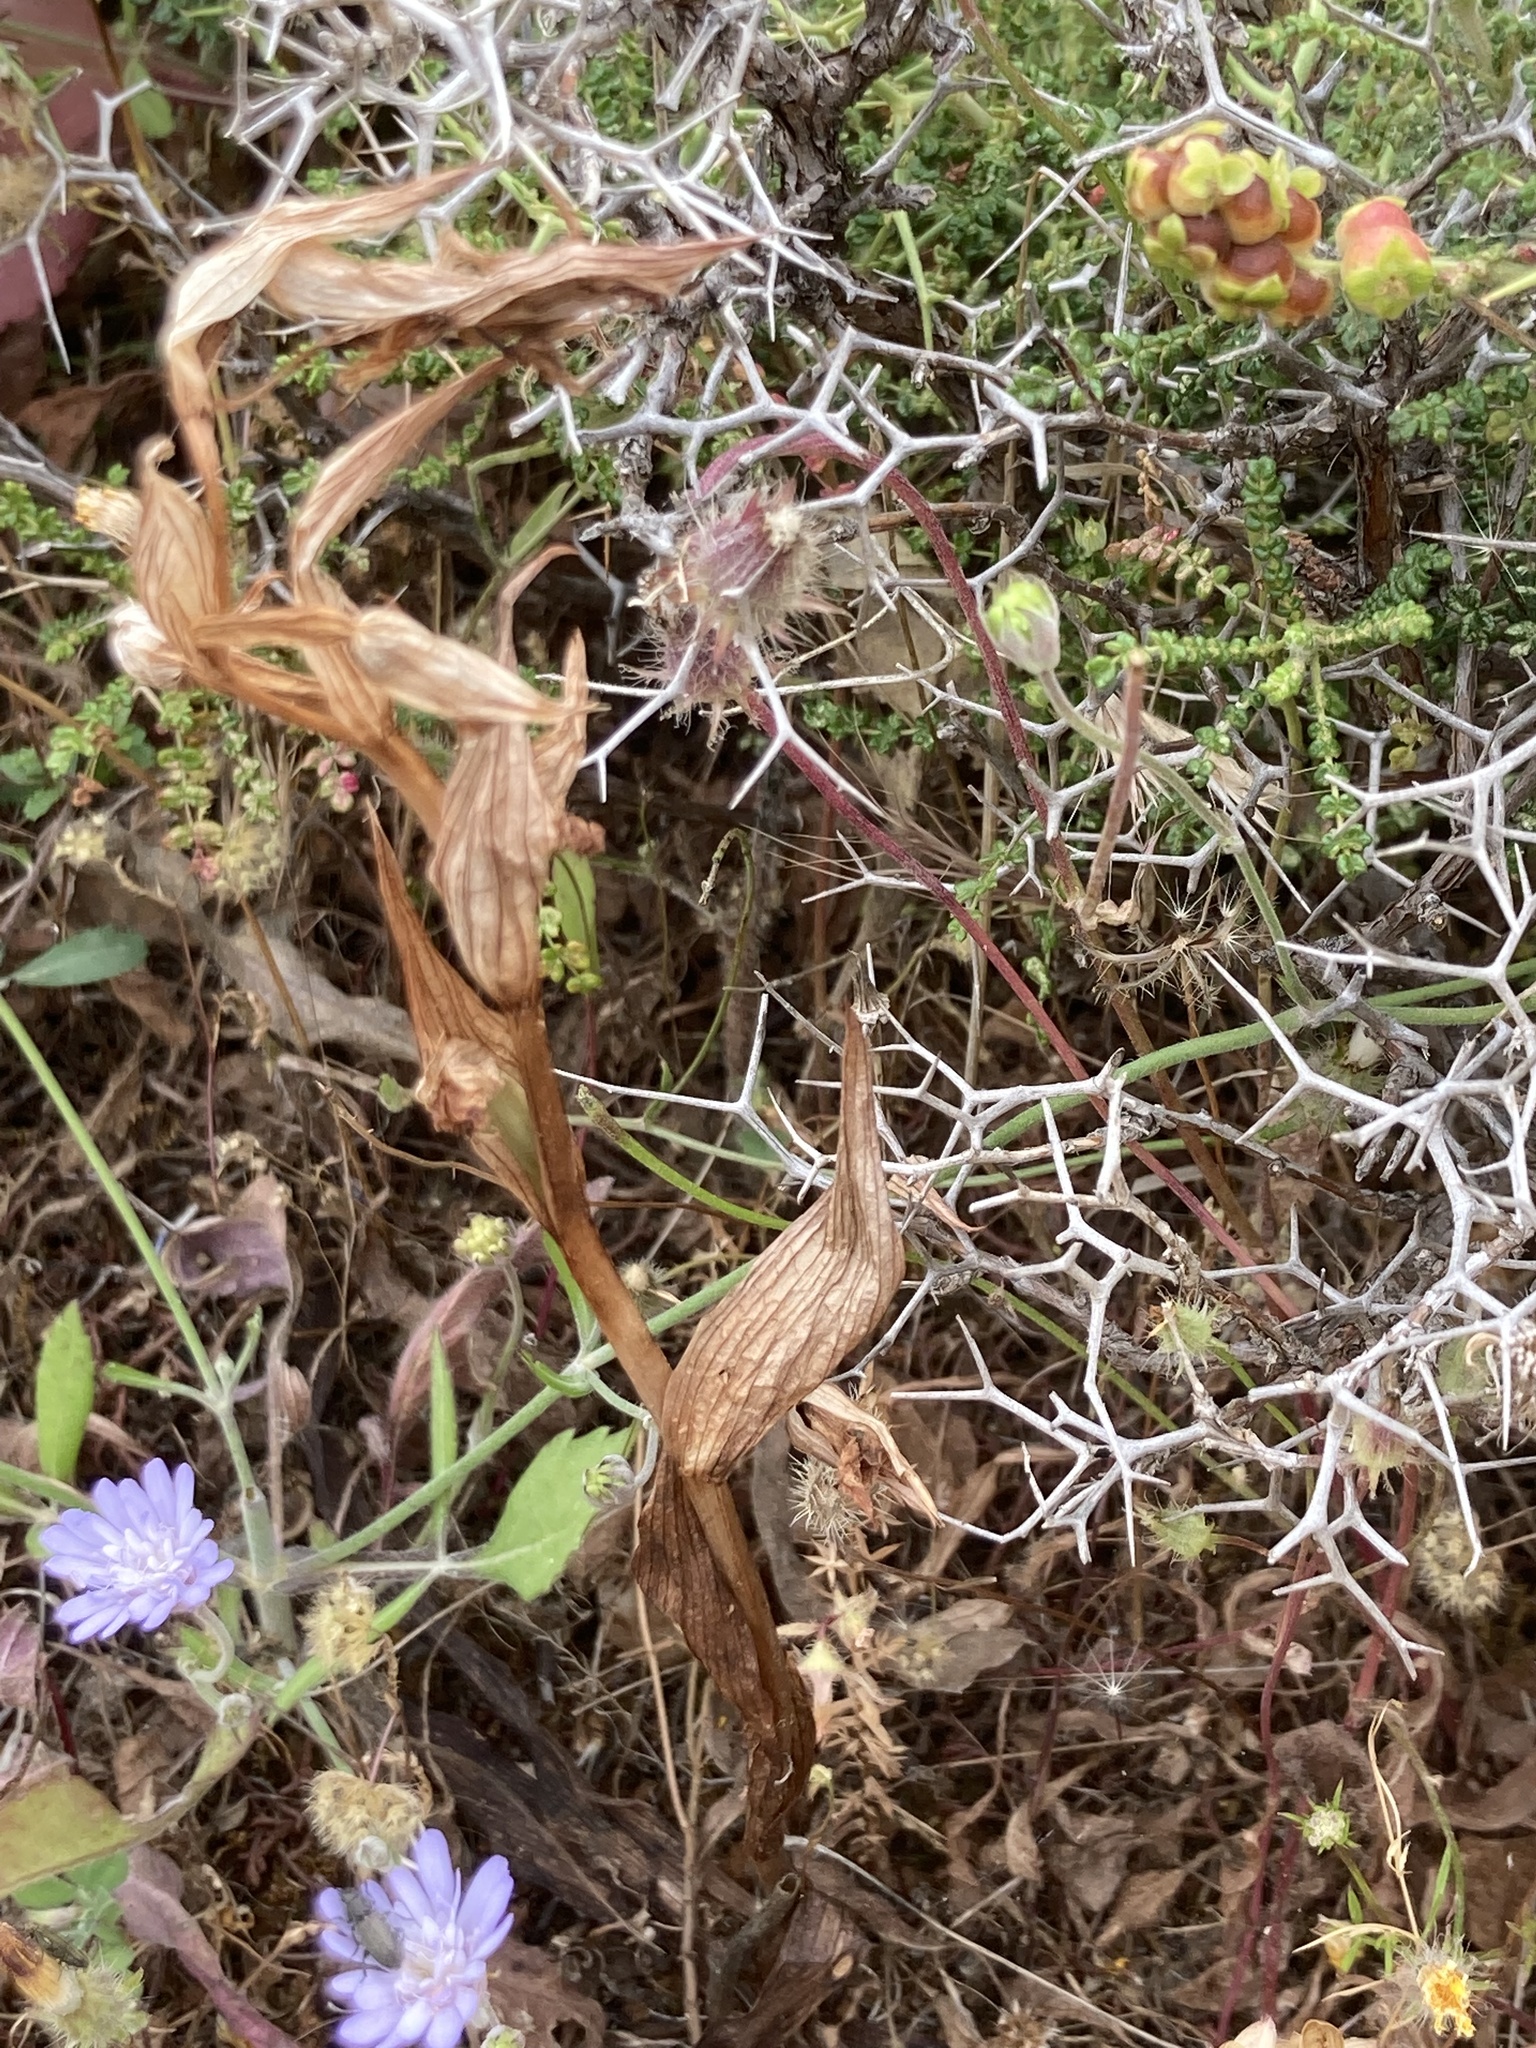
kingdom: Plantae
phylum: Tracheophyta
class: Magnoliopsida
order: Rosales
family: Rosaceae
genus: Sarcopoterium
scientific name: Sarcopoterium spinosum
